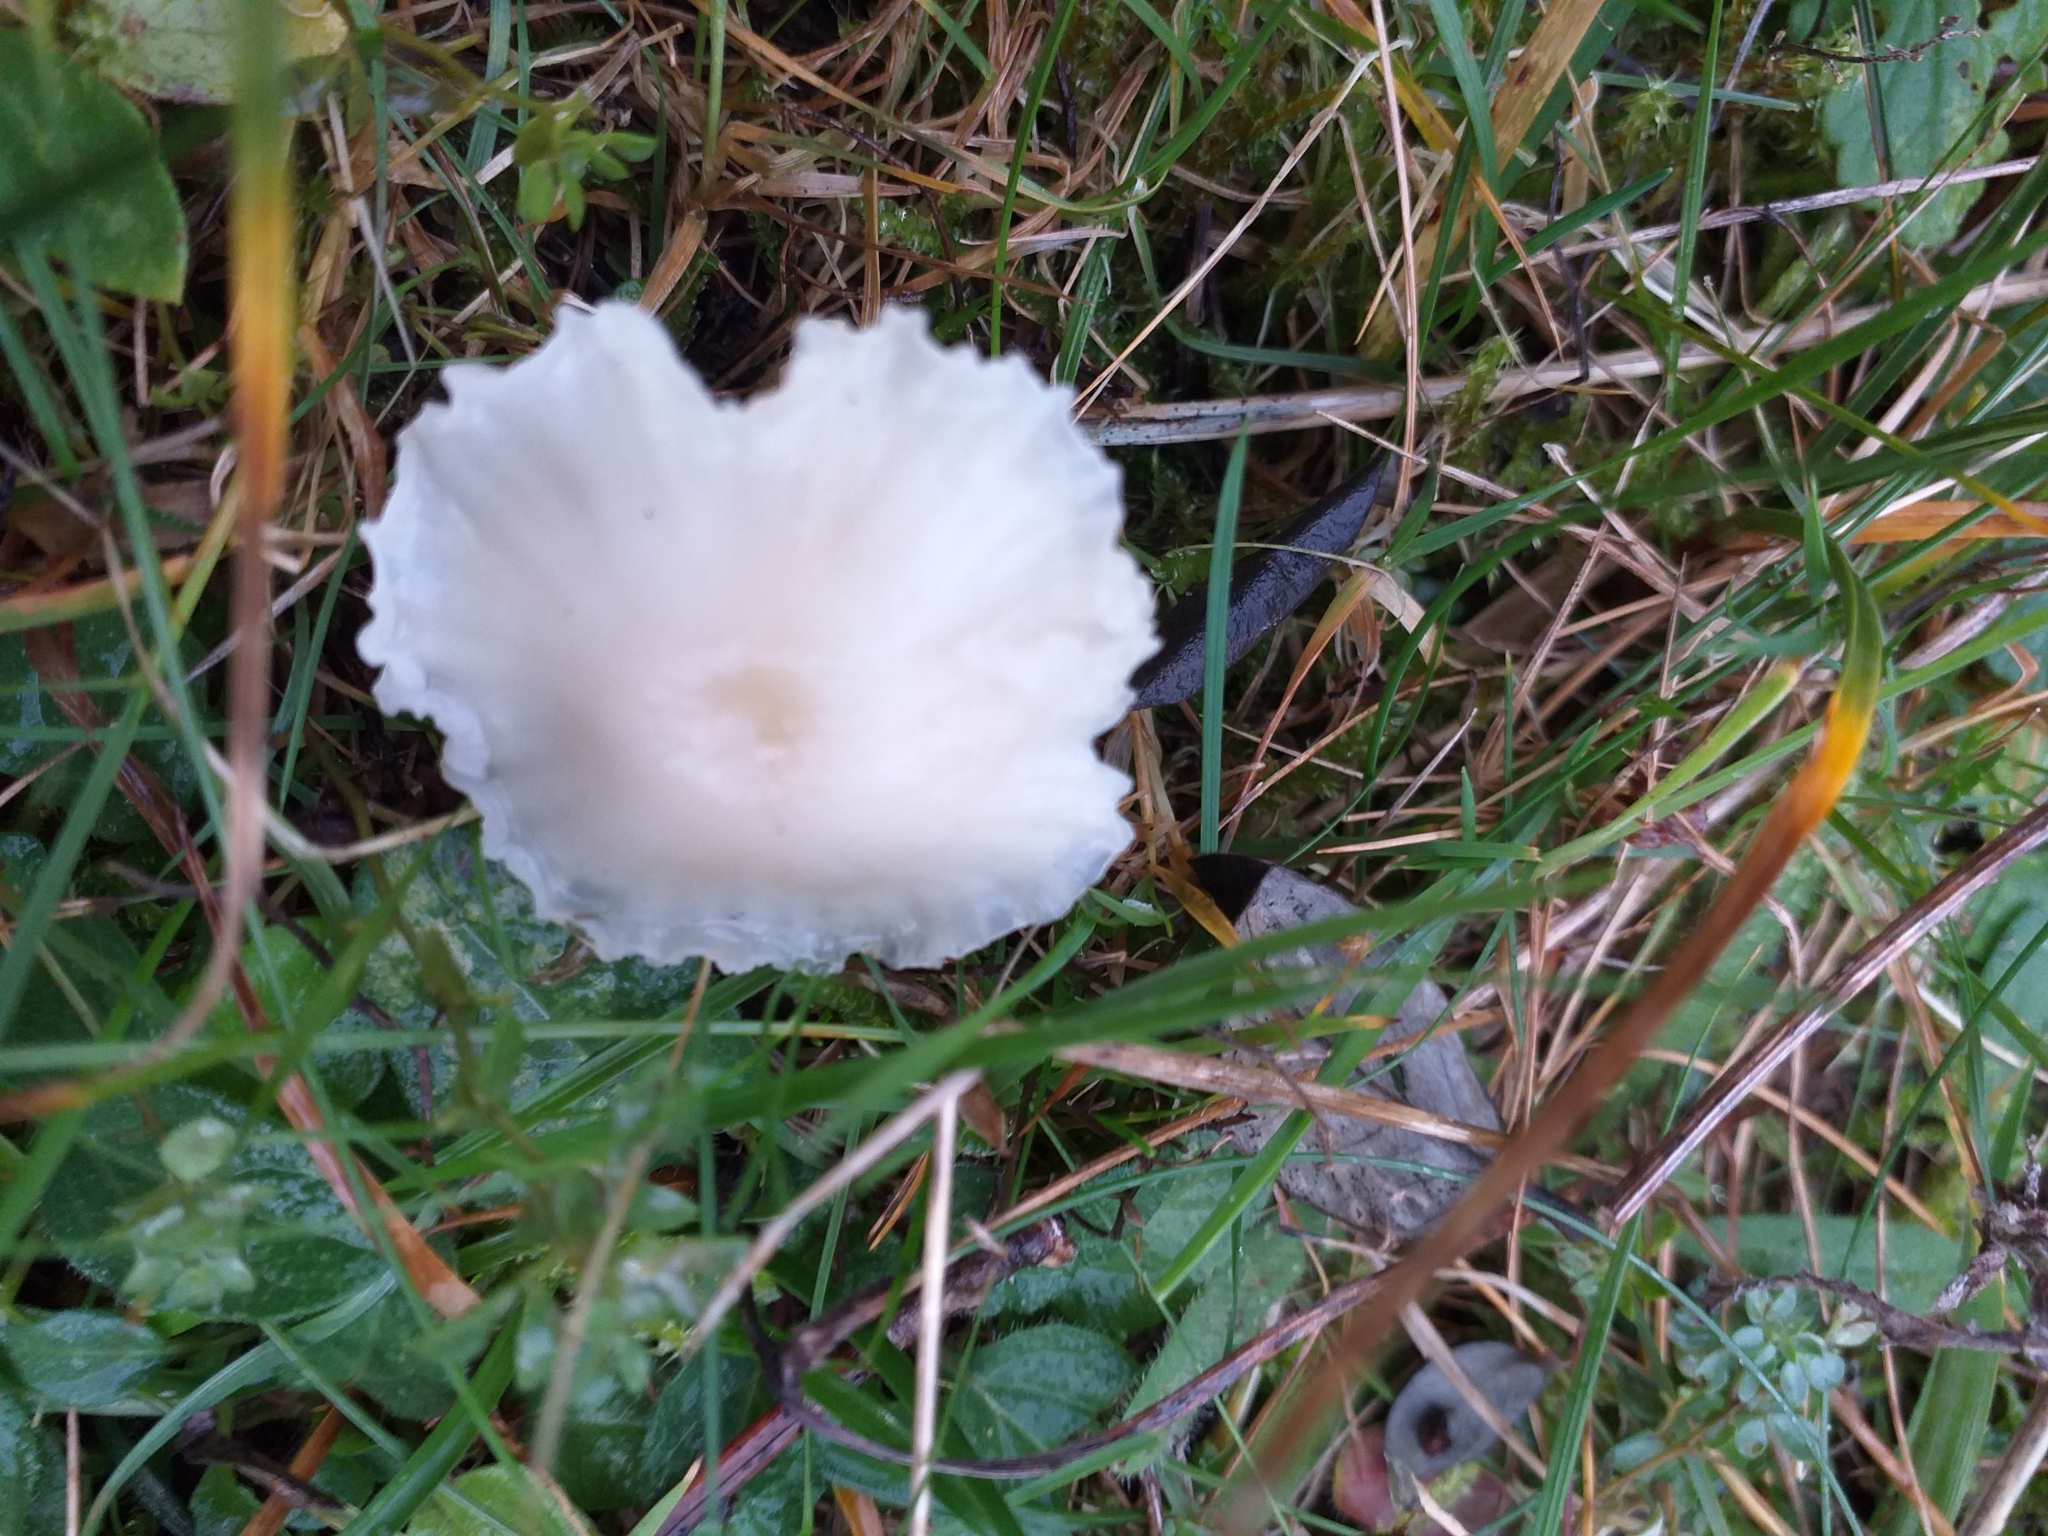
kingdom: Fungi
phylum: Basidiomycota
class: Agaricomycetes
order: Agaricales
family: Hygrophoraceae
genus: Cuphophyllus
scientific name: Cuphophyllus virgineus
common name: Snowy waxcap
